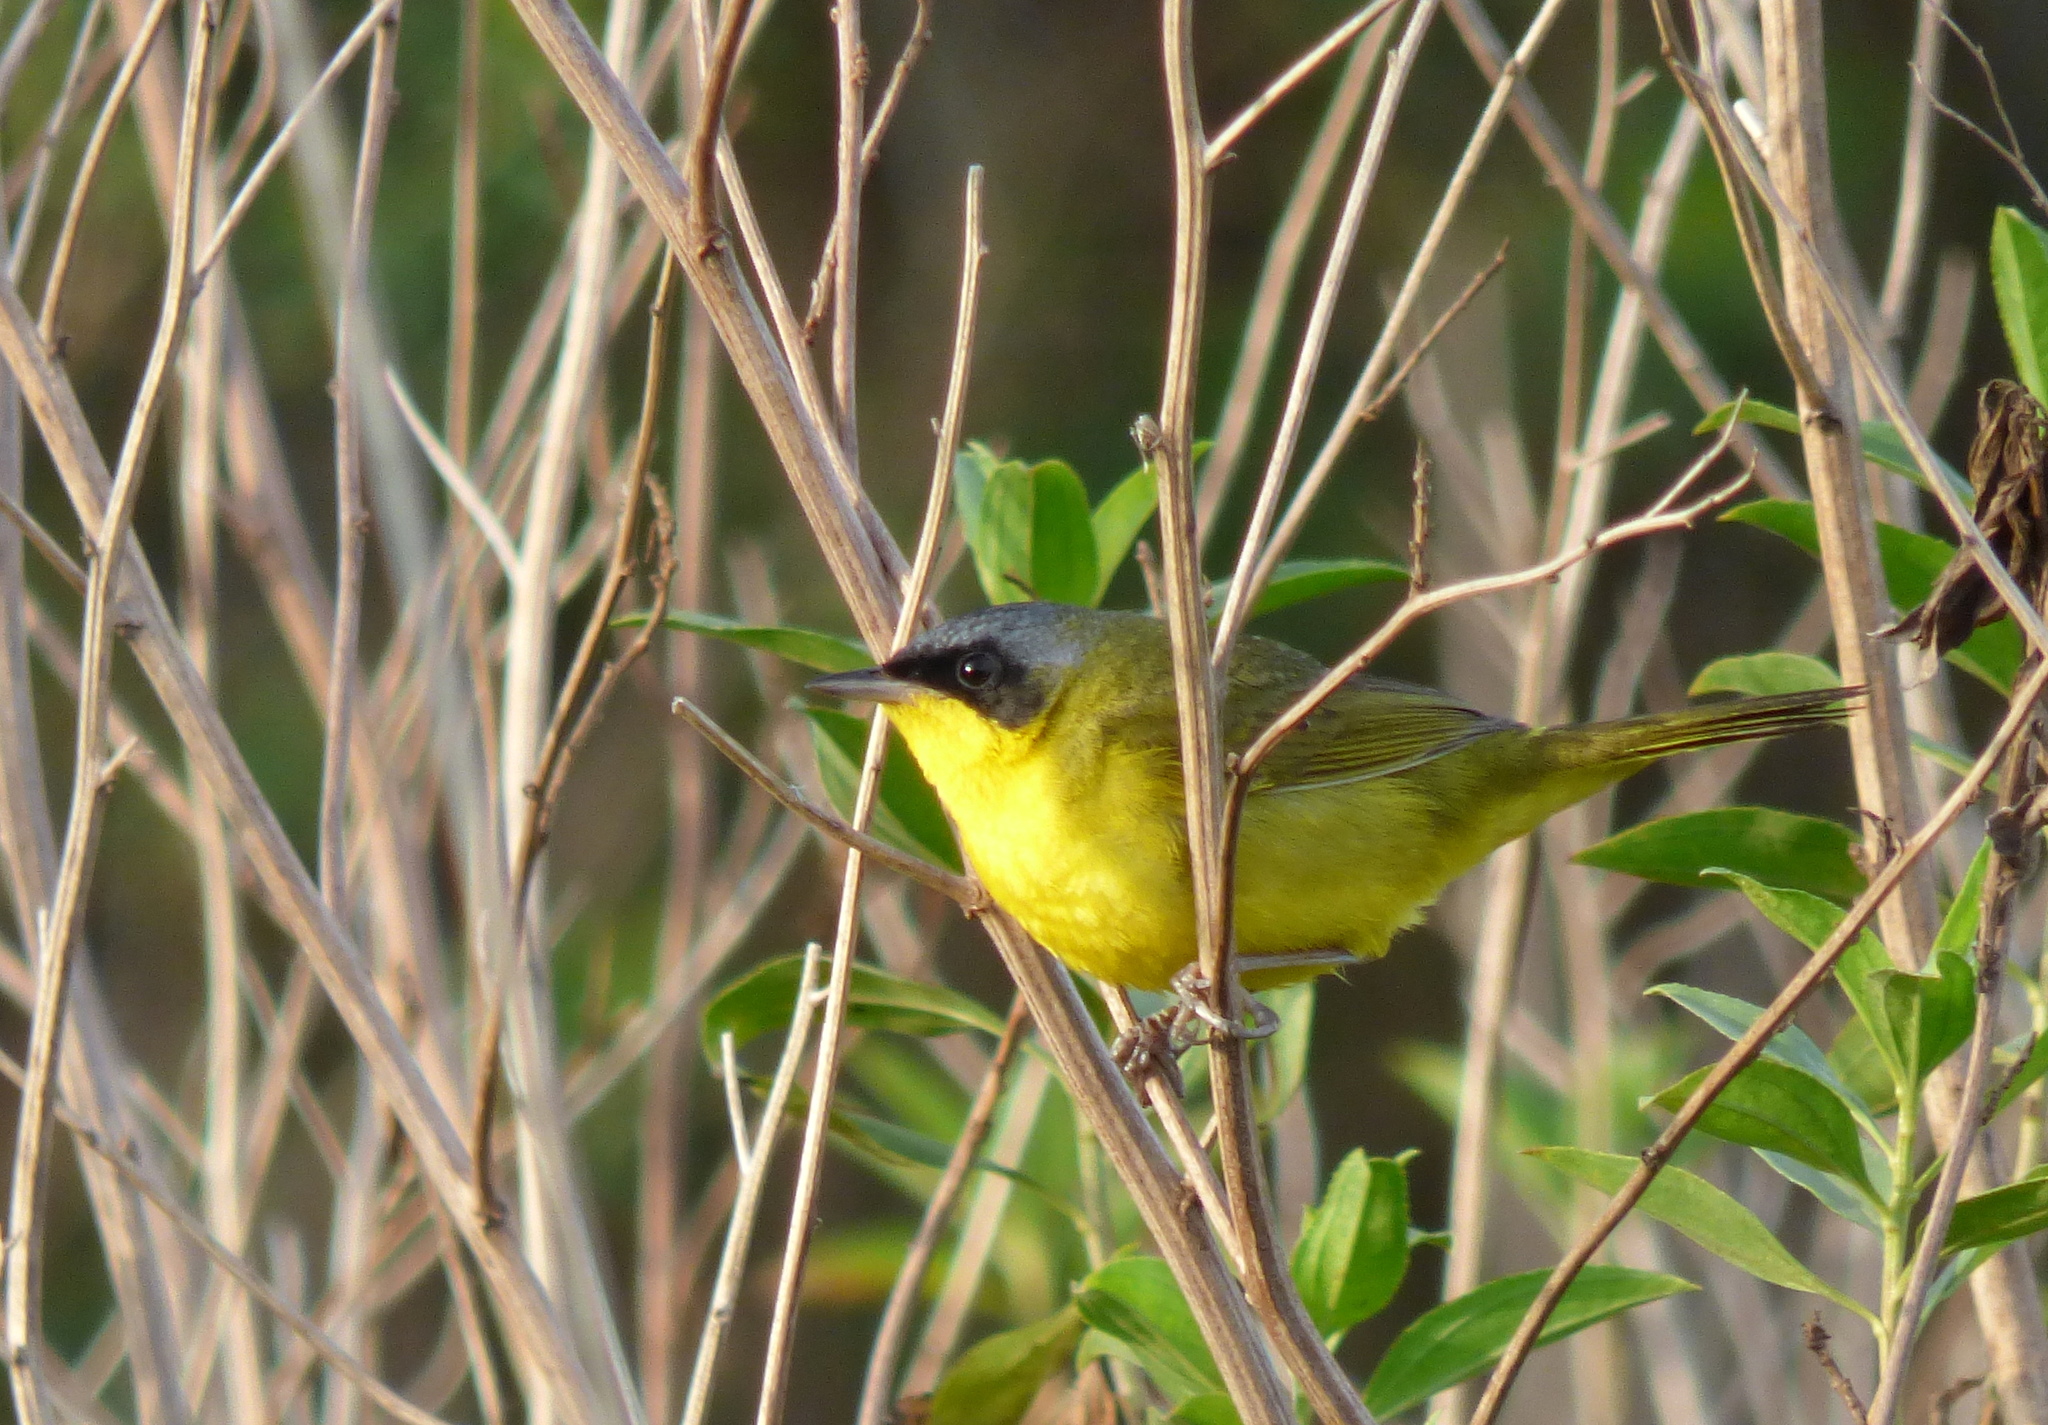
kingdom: Animalia
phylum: Chordata
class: Aves
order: Passeriformes
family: Parulidae
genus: Geothlypis
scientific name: Geothlypis velata
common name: Southern yellowthroat
